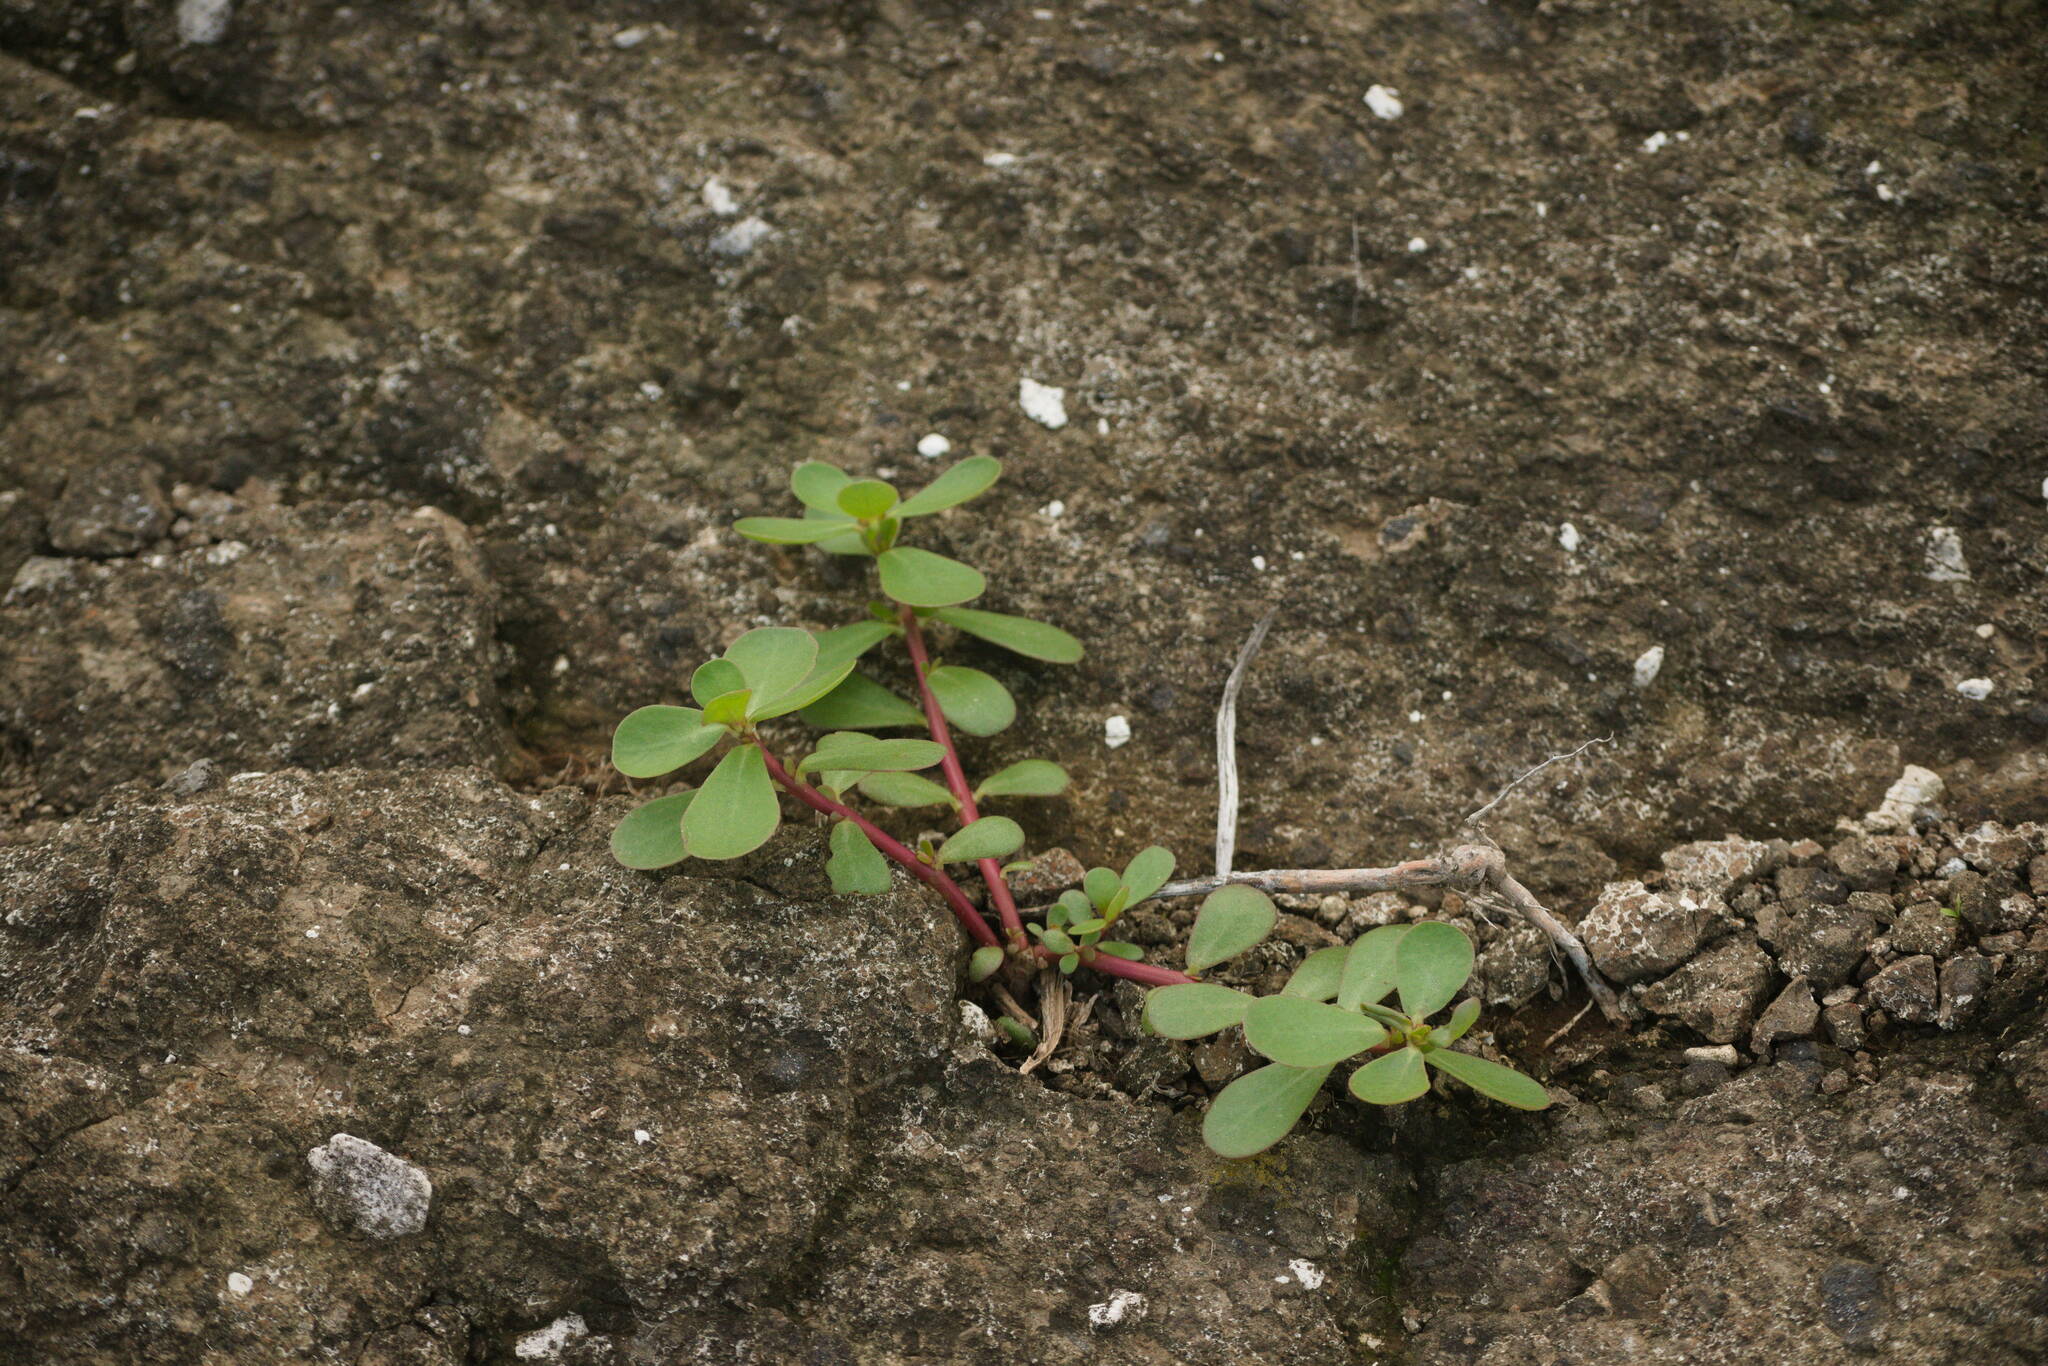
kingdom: Plantae
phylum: Tracheophyta
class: Magnoliopsida
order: Caryophyllales
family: Portulacaceae
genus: Portulaca
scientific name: Portulaca oleracea
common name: Common purslane
